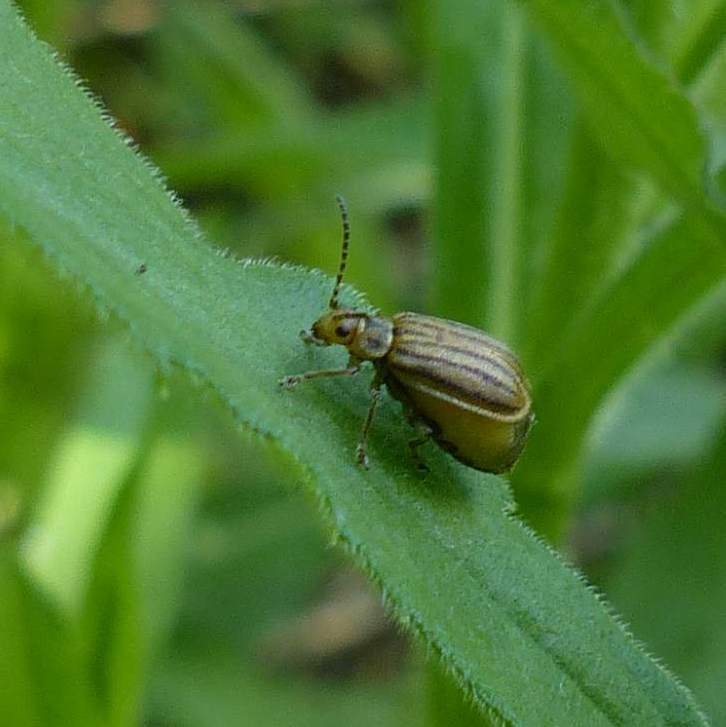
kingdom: Animalia
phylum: Arthropoda
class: Insecta
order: Coleoptera
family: Chrysomelidae
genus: Ophraella
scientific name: Ophraella conferta
